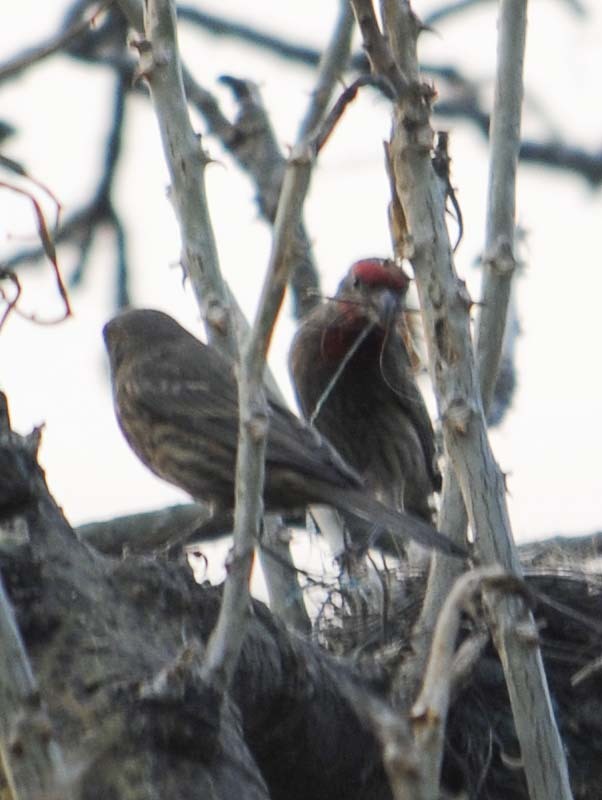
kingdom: Animalia
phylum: Chordata
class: Aves
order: Passeriformes
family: Fringillidae
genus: Haemorhous
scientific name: Haemorhous mexicanus
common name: House finch
